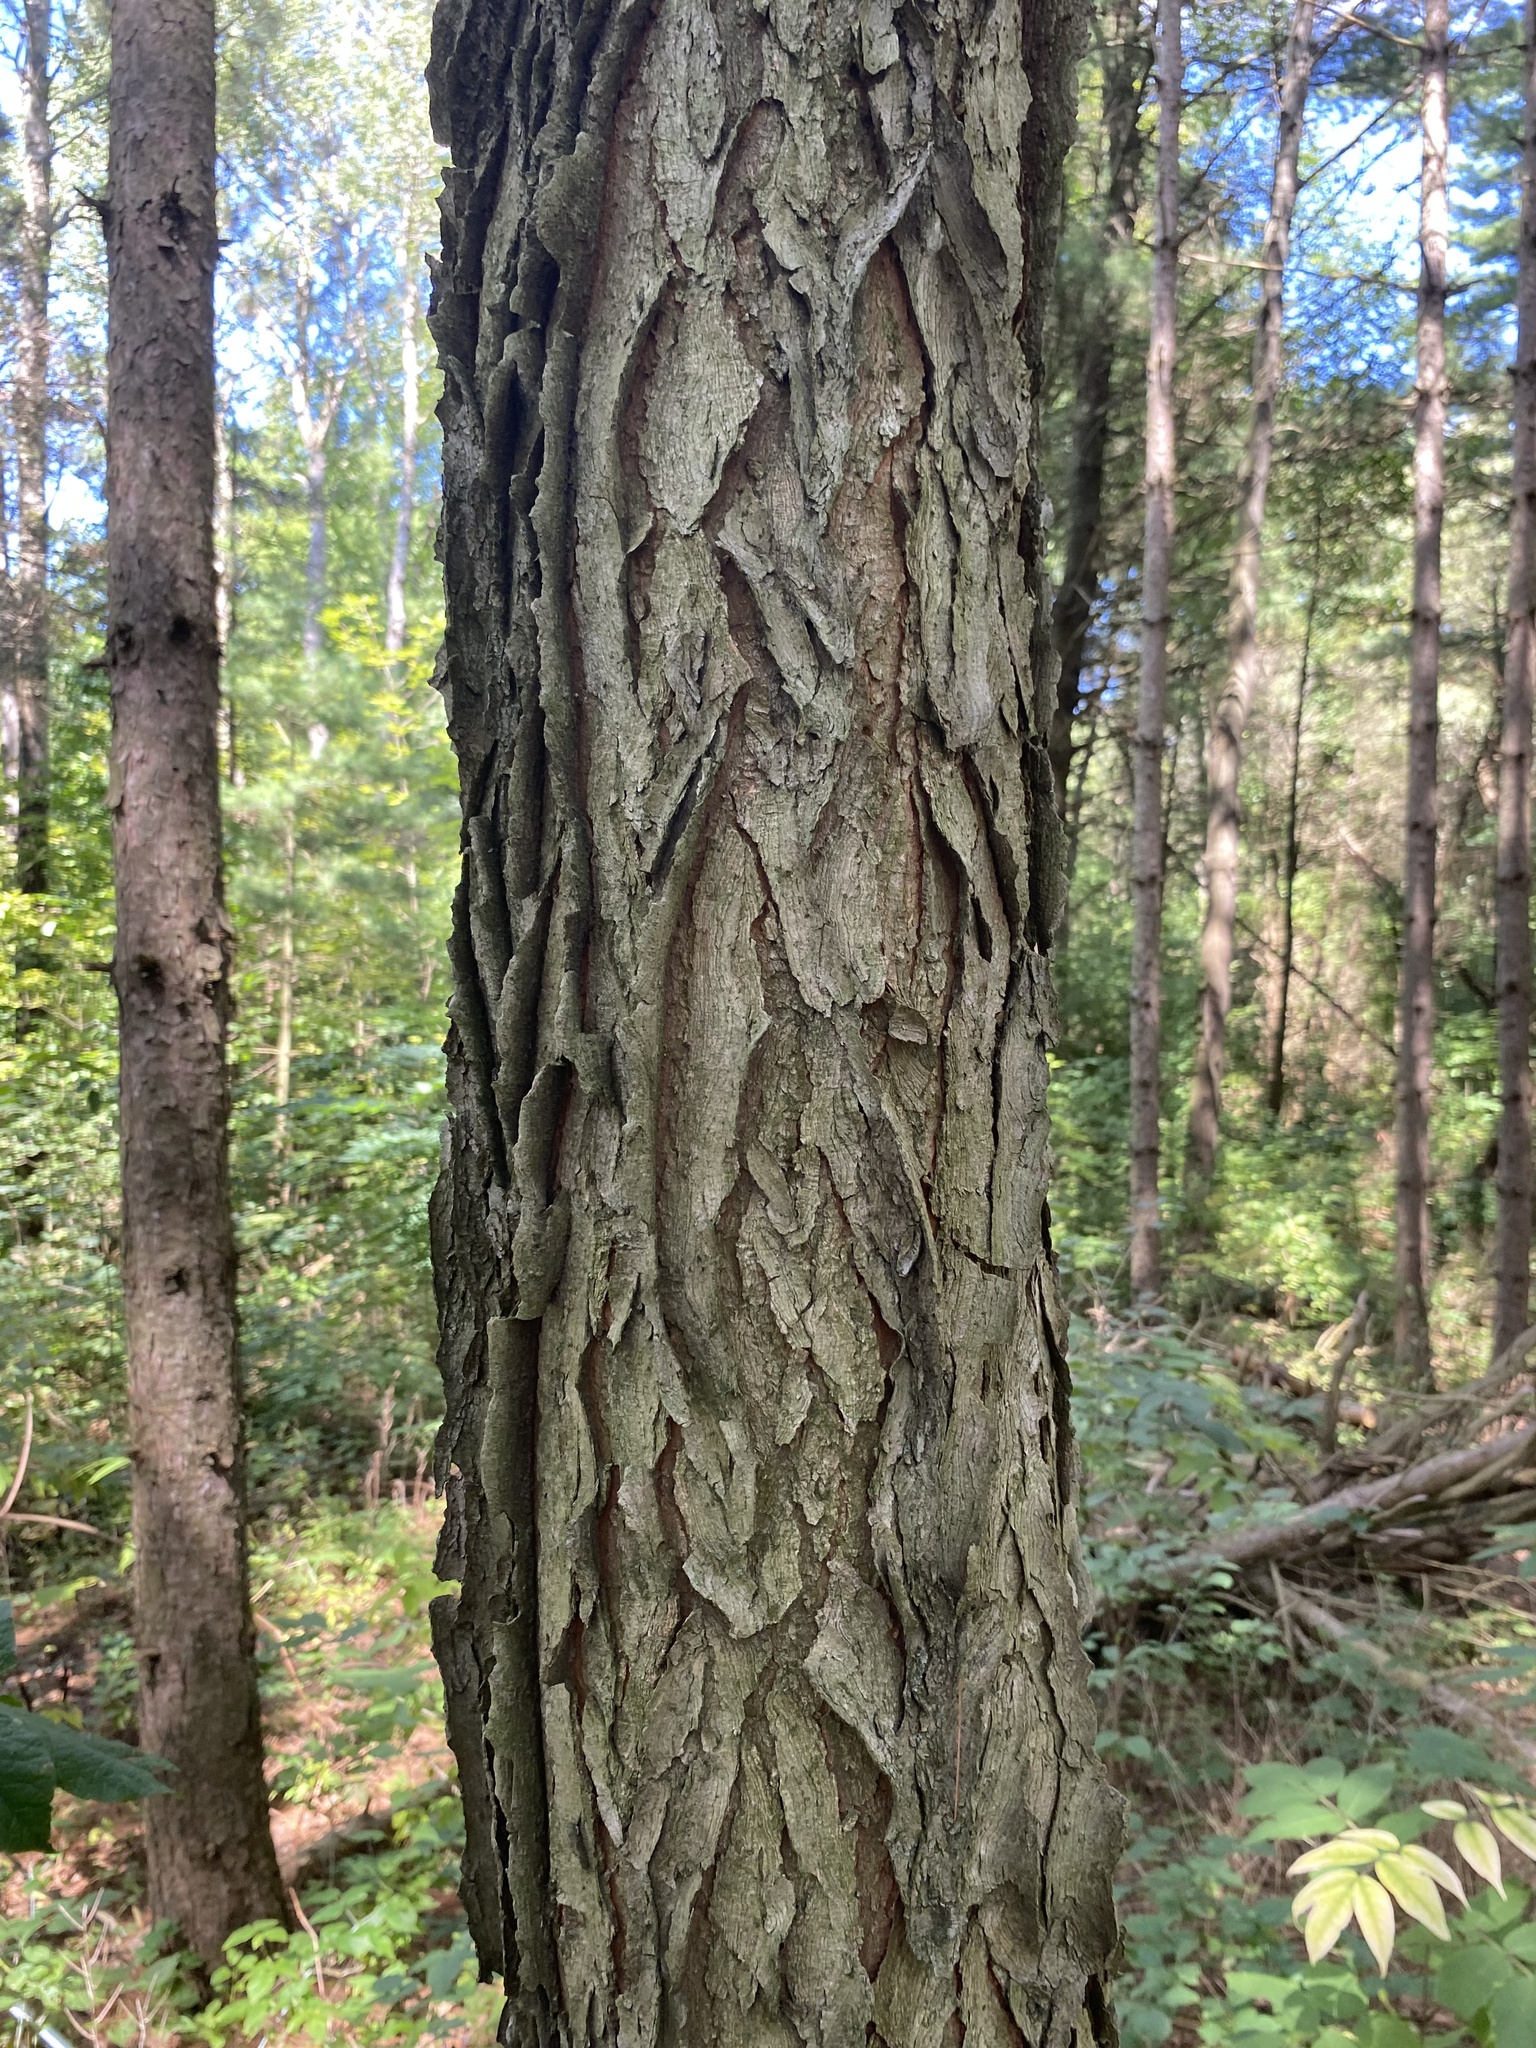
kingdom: Plantae
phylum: Tracheophyta
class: Magnoliopsida
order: Fabales
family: Fabaceae
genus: Gymnocladus
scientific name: Gymnocladus dioicus
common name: Kentucky coffee-tree
